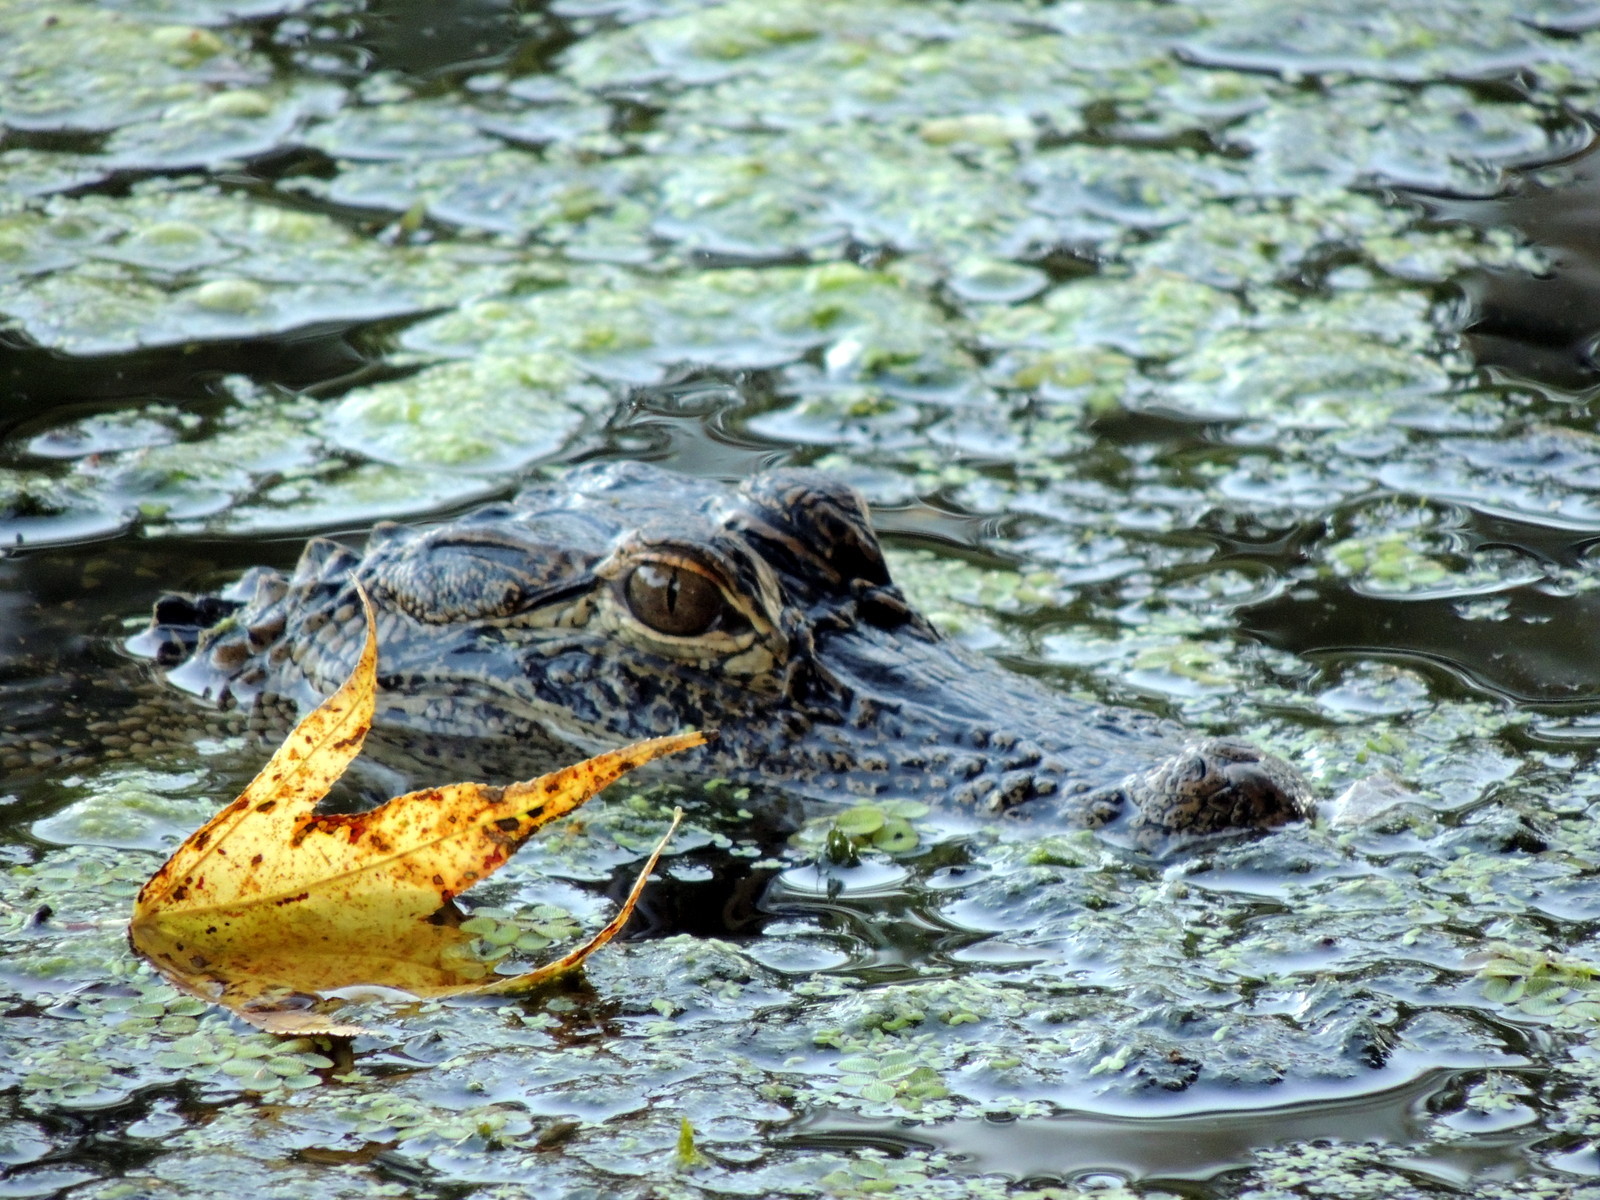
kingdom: Animalia
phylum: Chordata
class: Crocodylia
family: Alligatoridae
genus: Alligator
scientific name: Alligator mississippiensis
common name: American alligator
